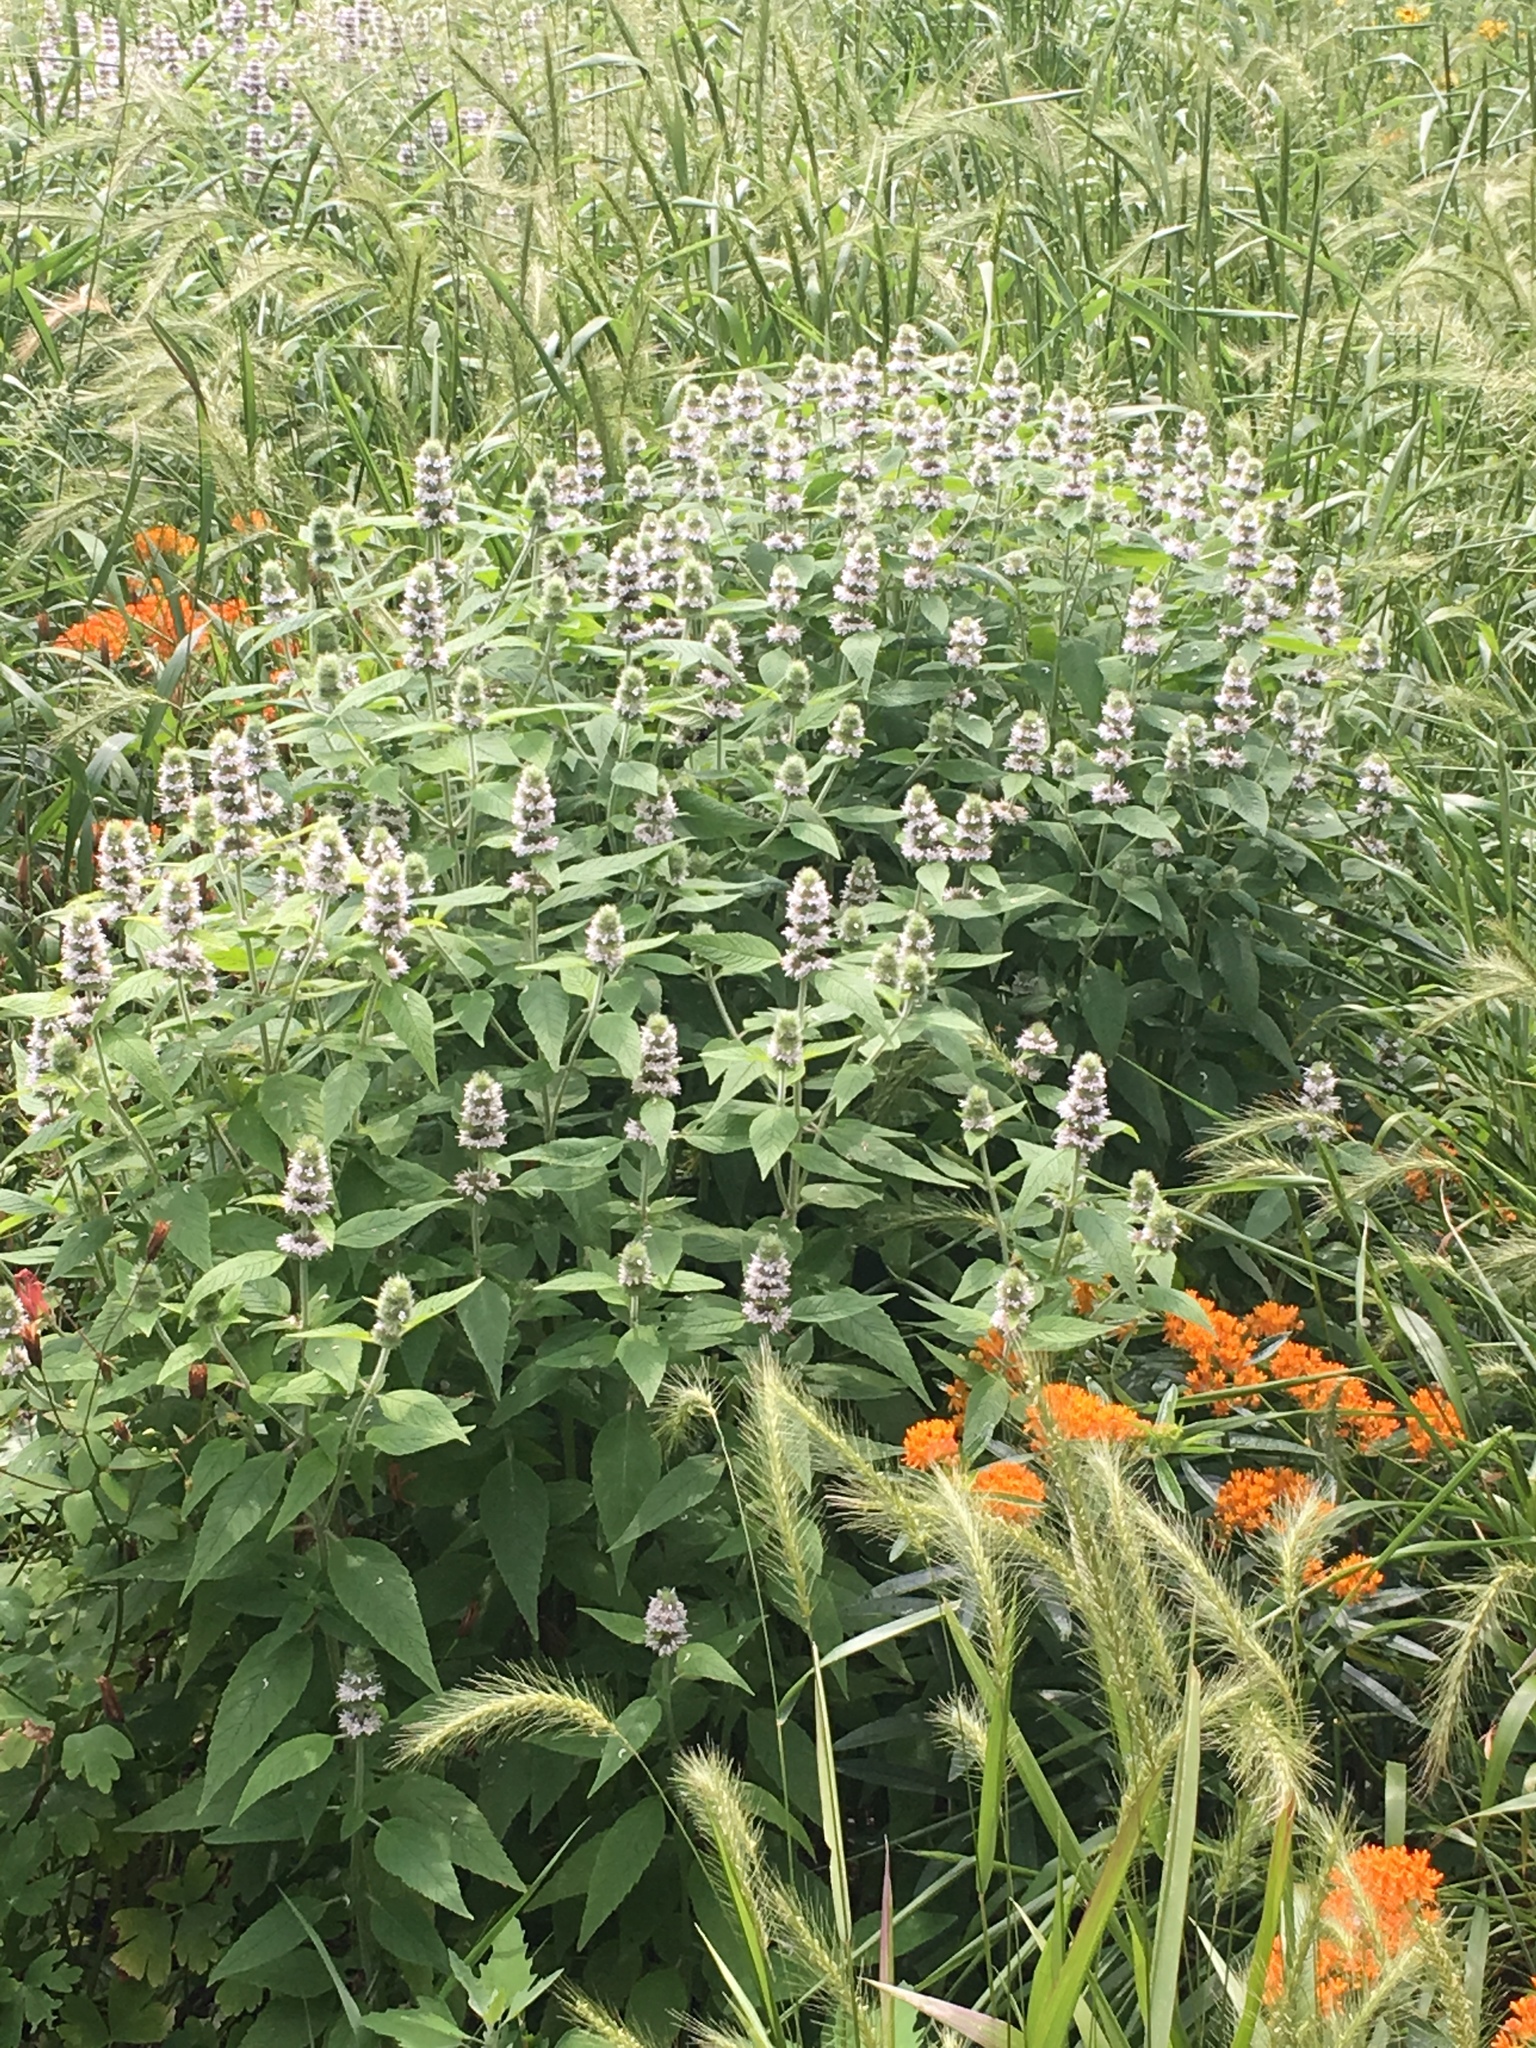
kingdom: Plantae
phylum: Tracheophyta
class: Magnoliopsida
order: Lamiales
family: Lamiaceae
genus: Blephilia
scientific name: Blephilia hirsuta
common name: Hairy blephilia
